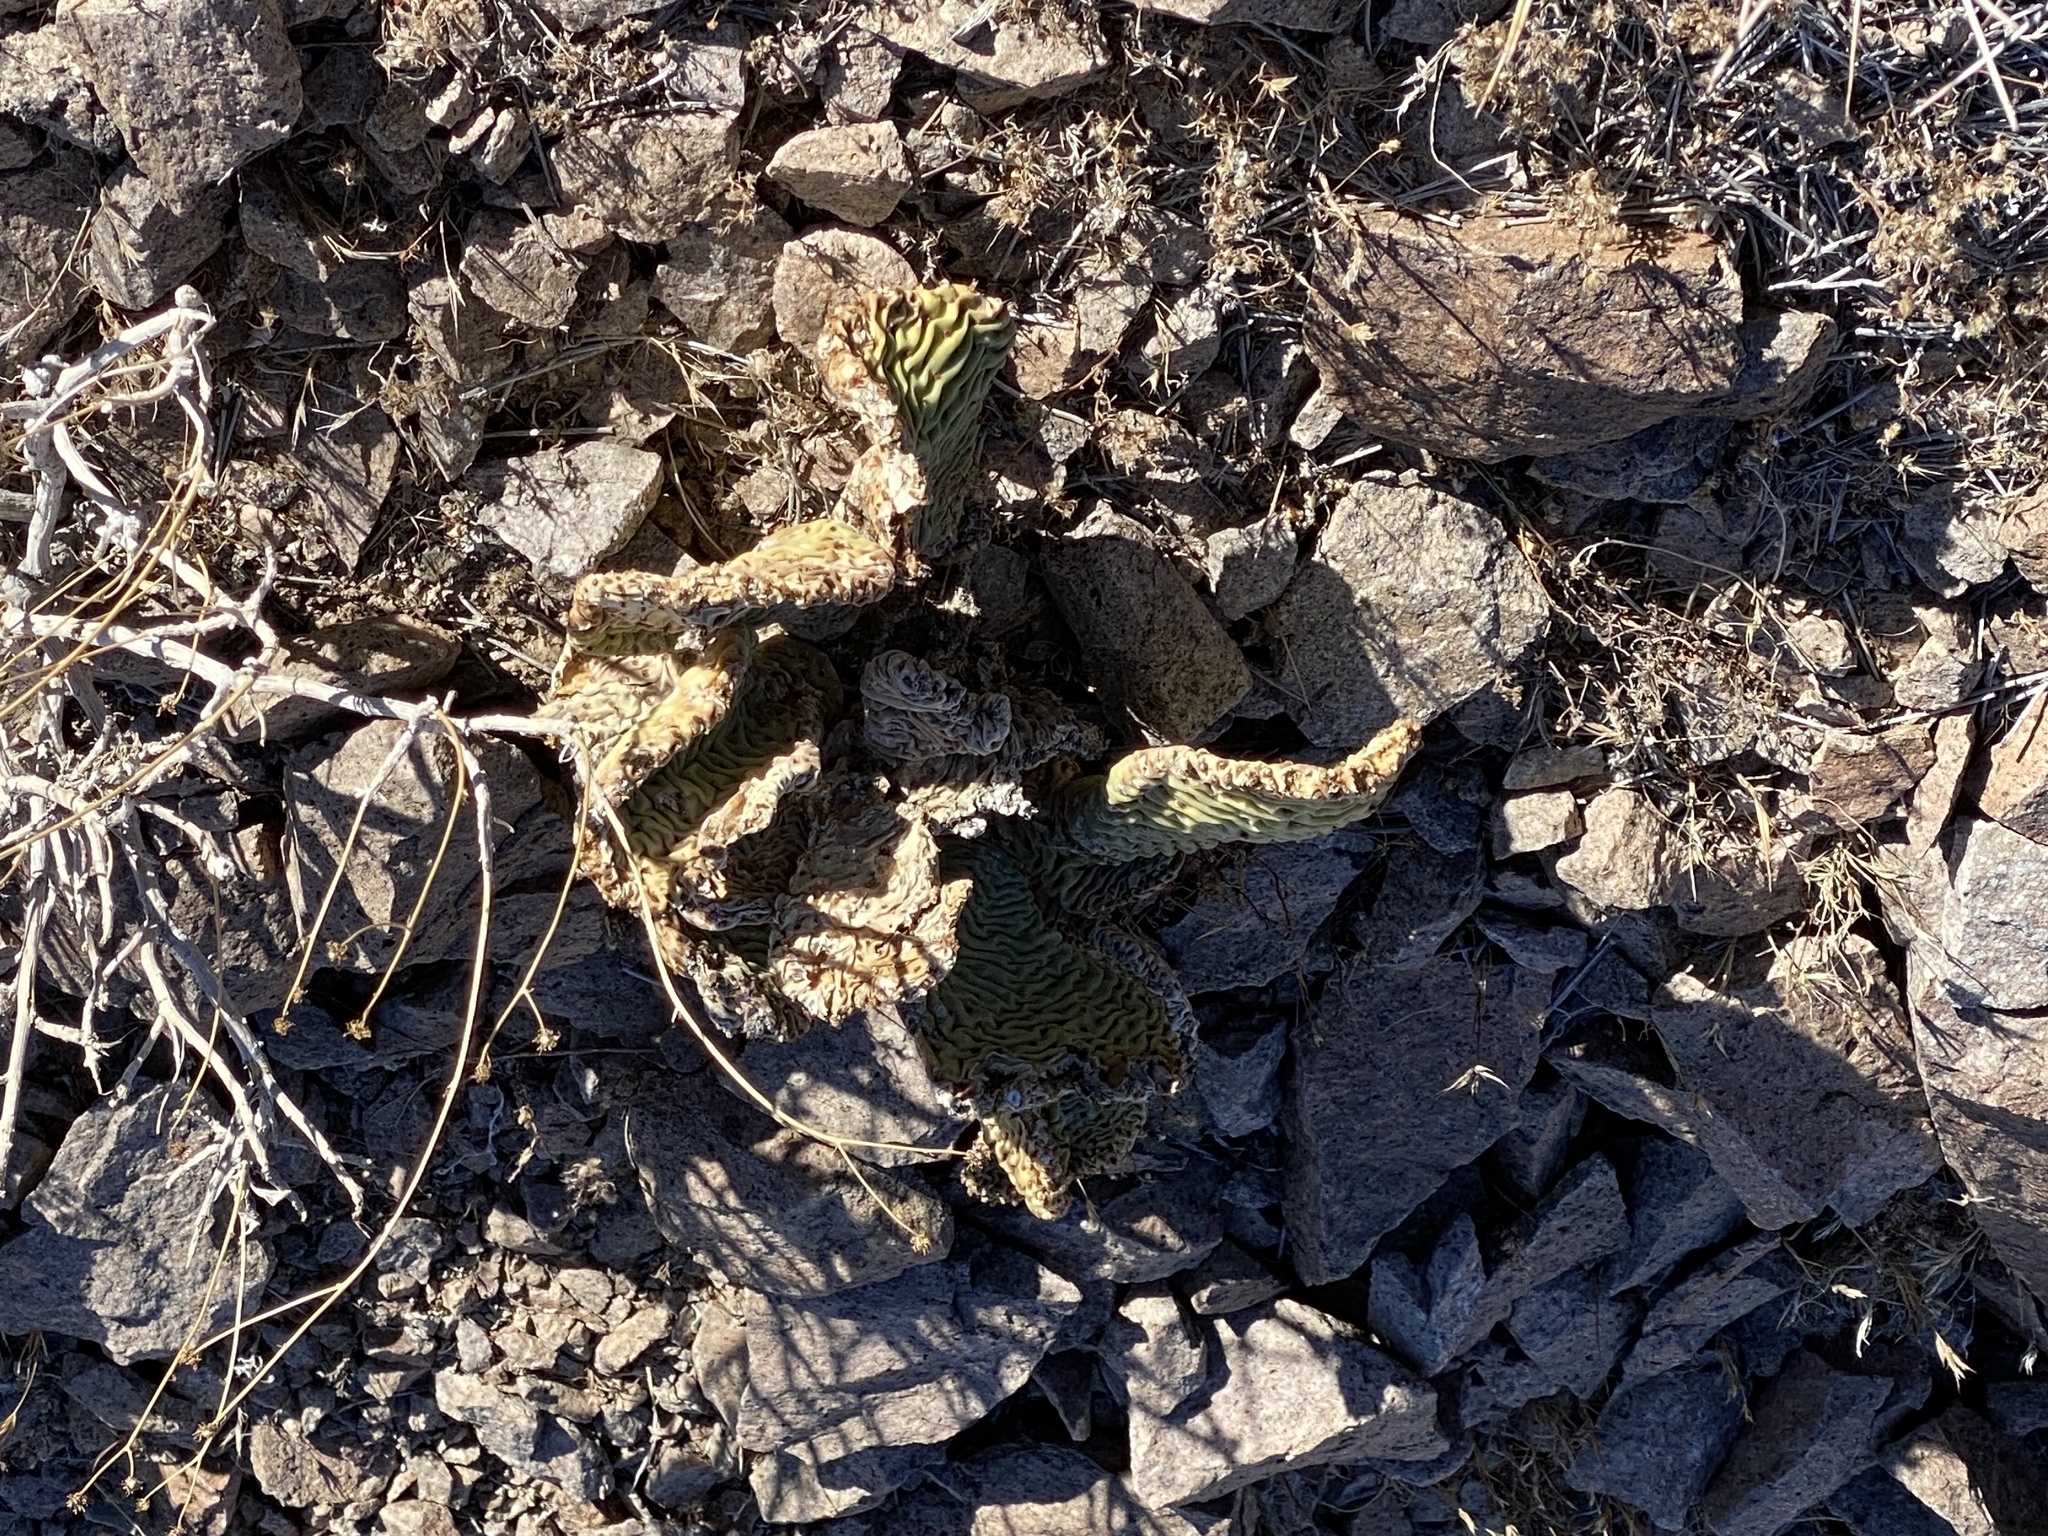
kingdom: Plantae
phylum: Tracheophyta
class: Magnoliopsida
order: Caryophyllales
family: Cactaceae
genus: Opuntia
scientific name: Opuntia basilaris
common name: Beavertail prickly-pear
